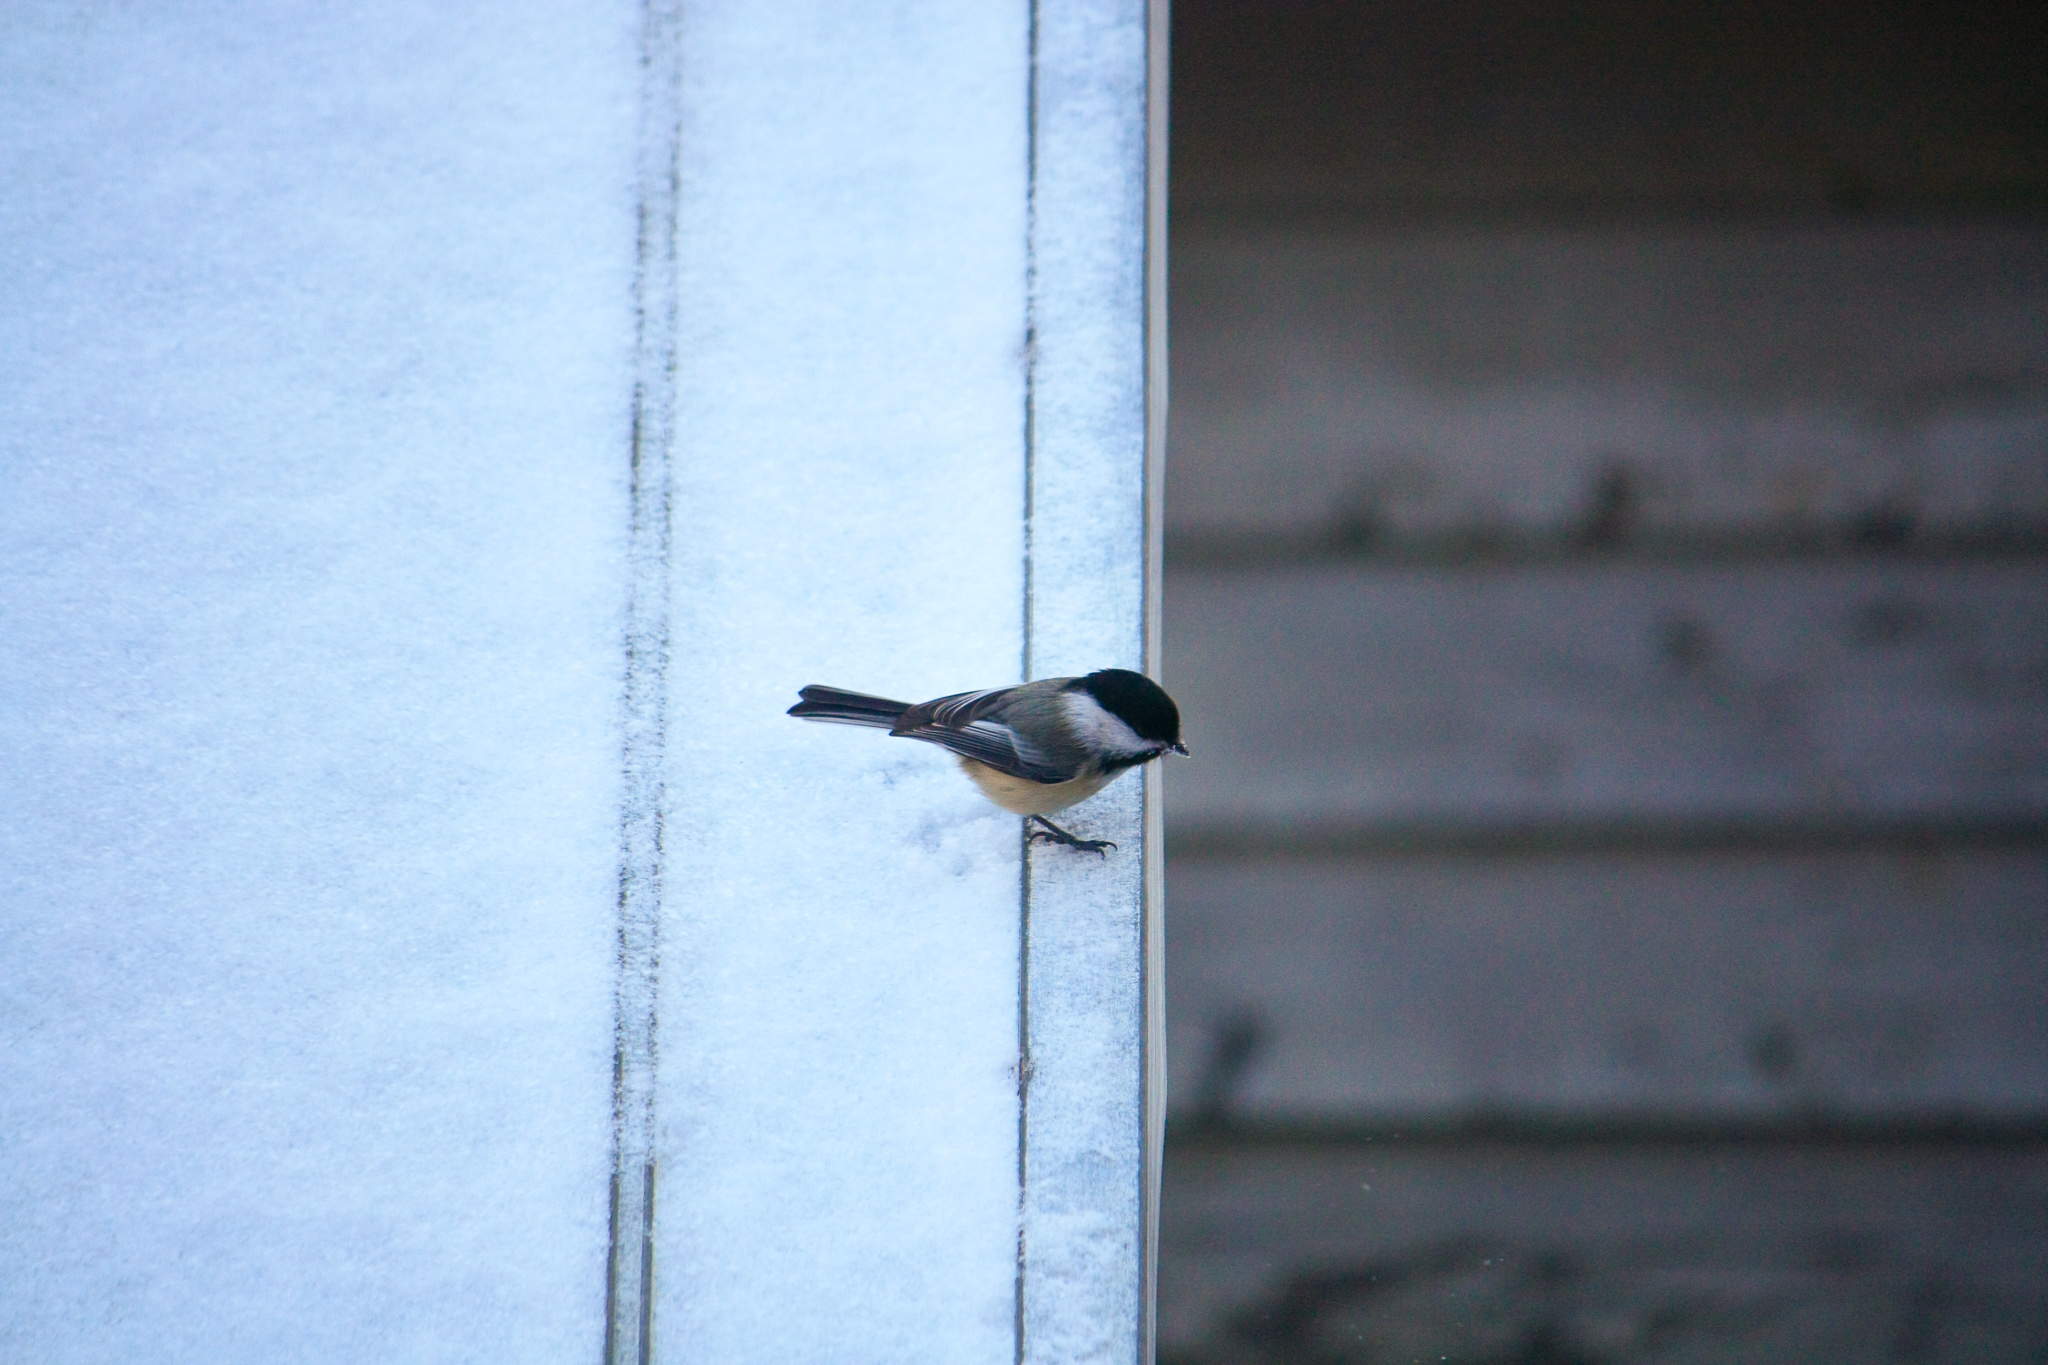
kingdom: Animalia
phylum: Chordata
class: Aves
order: Passeriformes
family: Paridae
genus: Poecile
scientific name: Poecile atricapillus
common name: Black-capped chickadee
